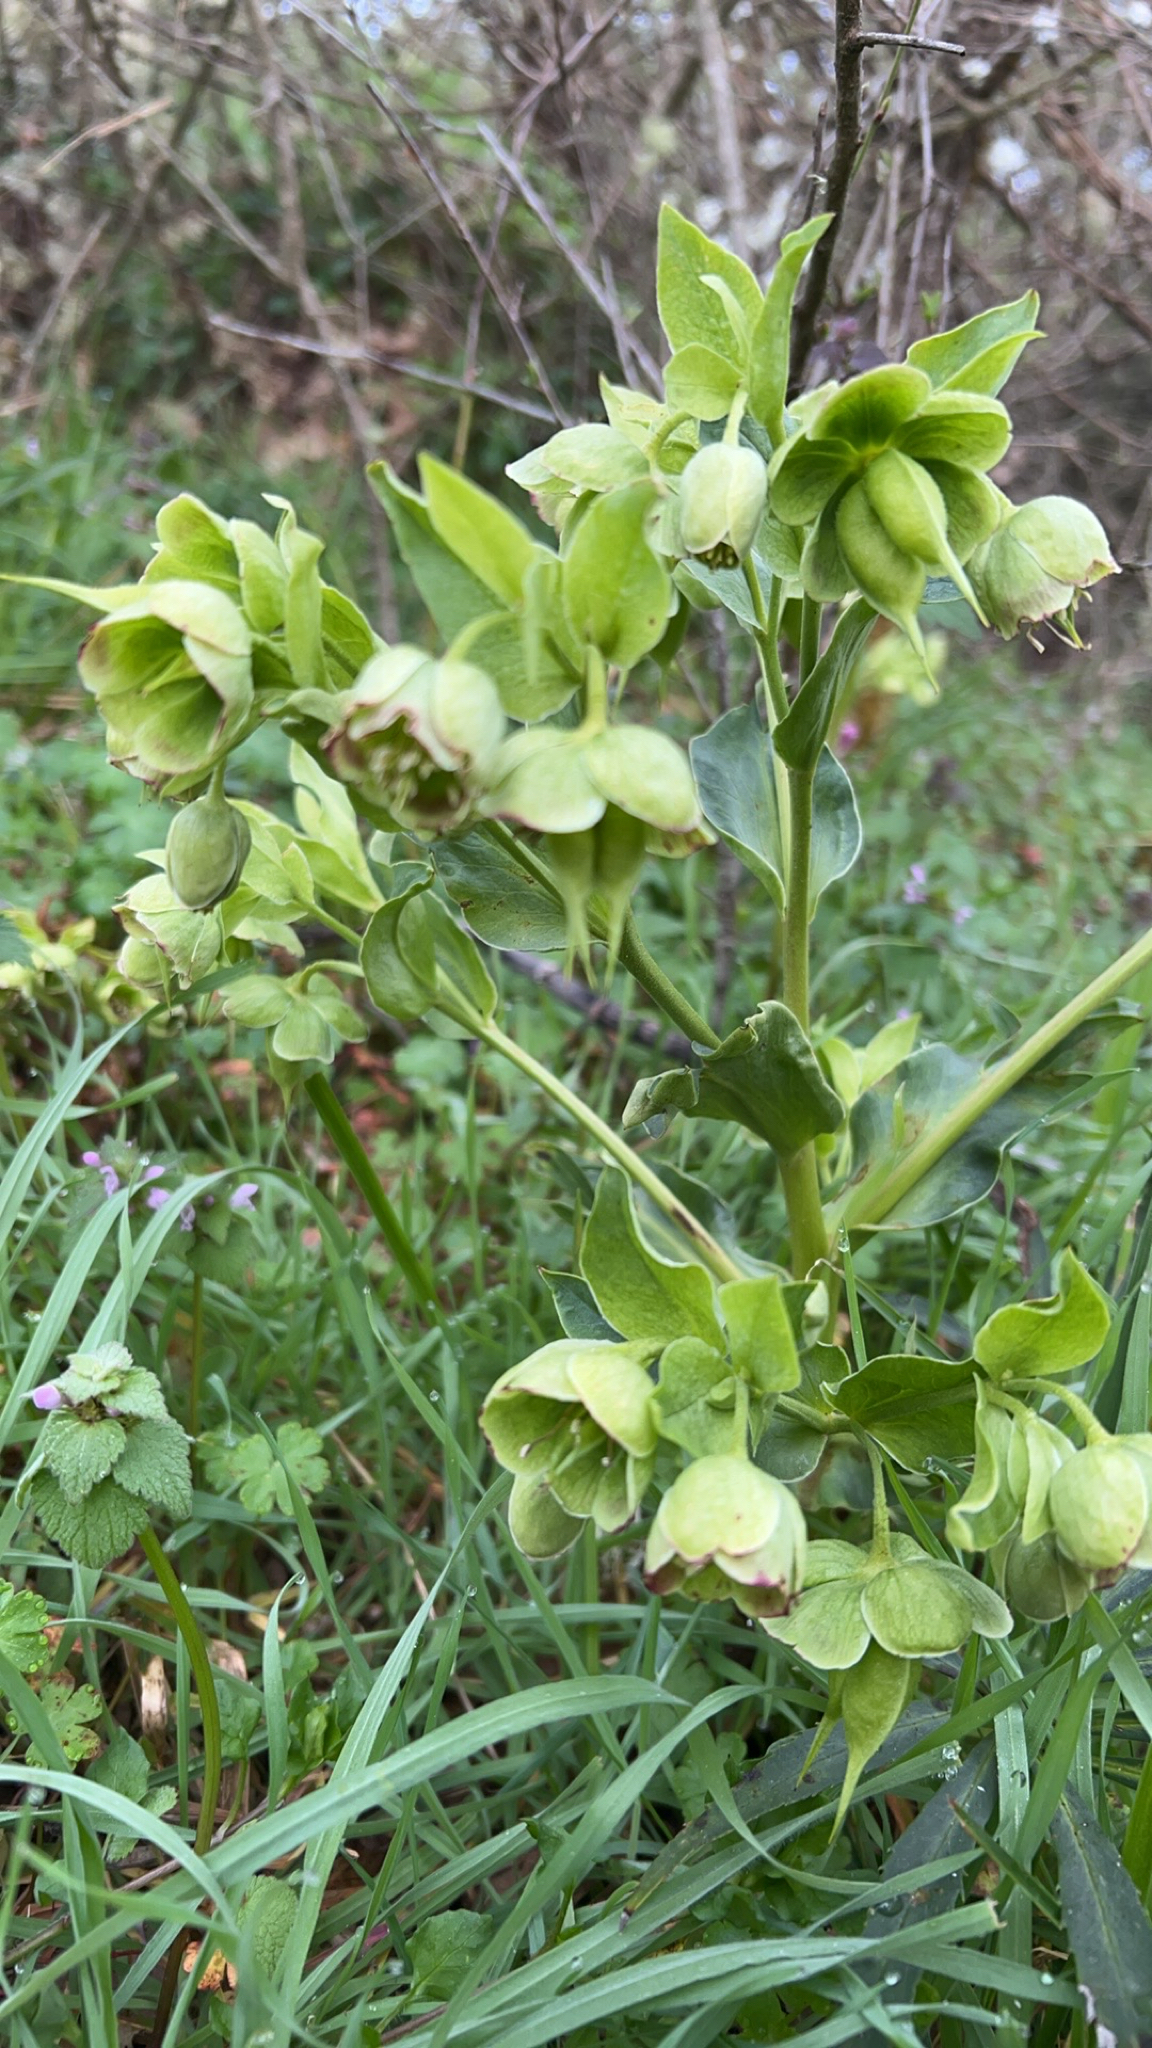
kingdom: Plantae
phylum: Tracheophyta
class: Magnoliopsida
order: Ranunculales
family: Ranunculaceae
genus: Helleborus
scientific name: Helleborus foetidus
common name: Stinking hellebore
